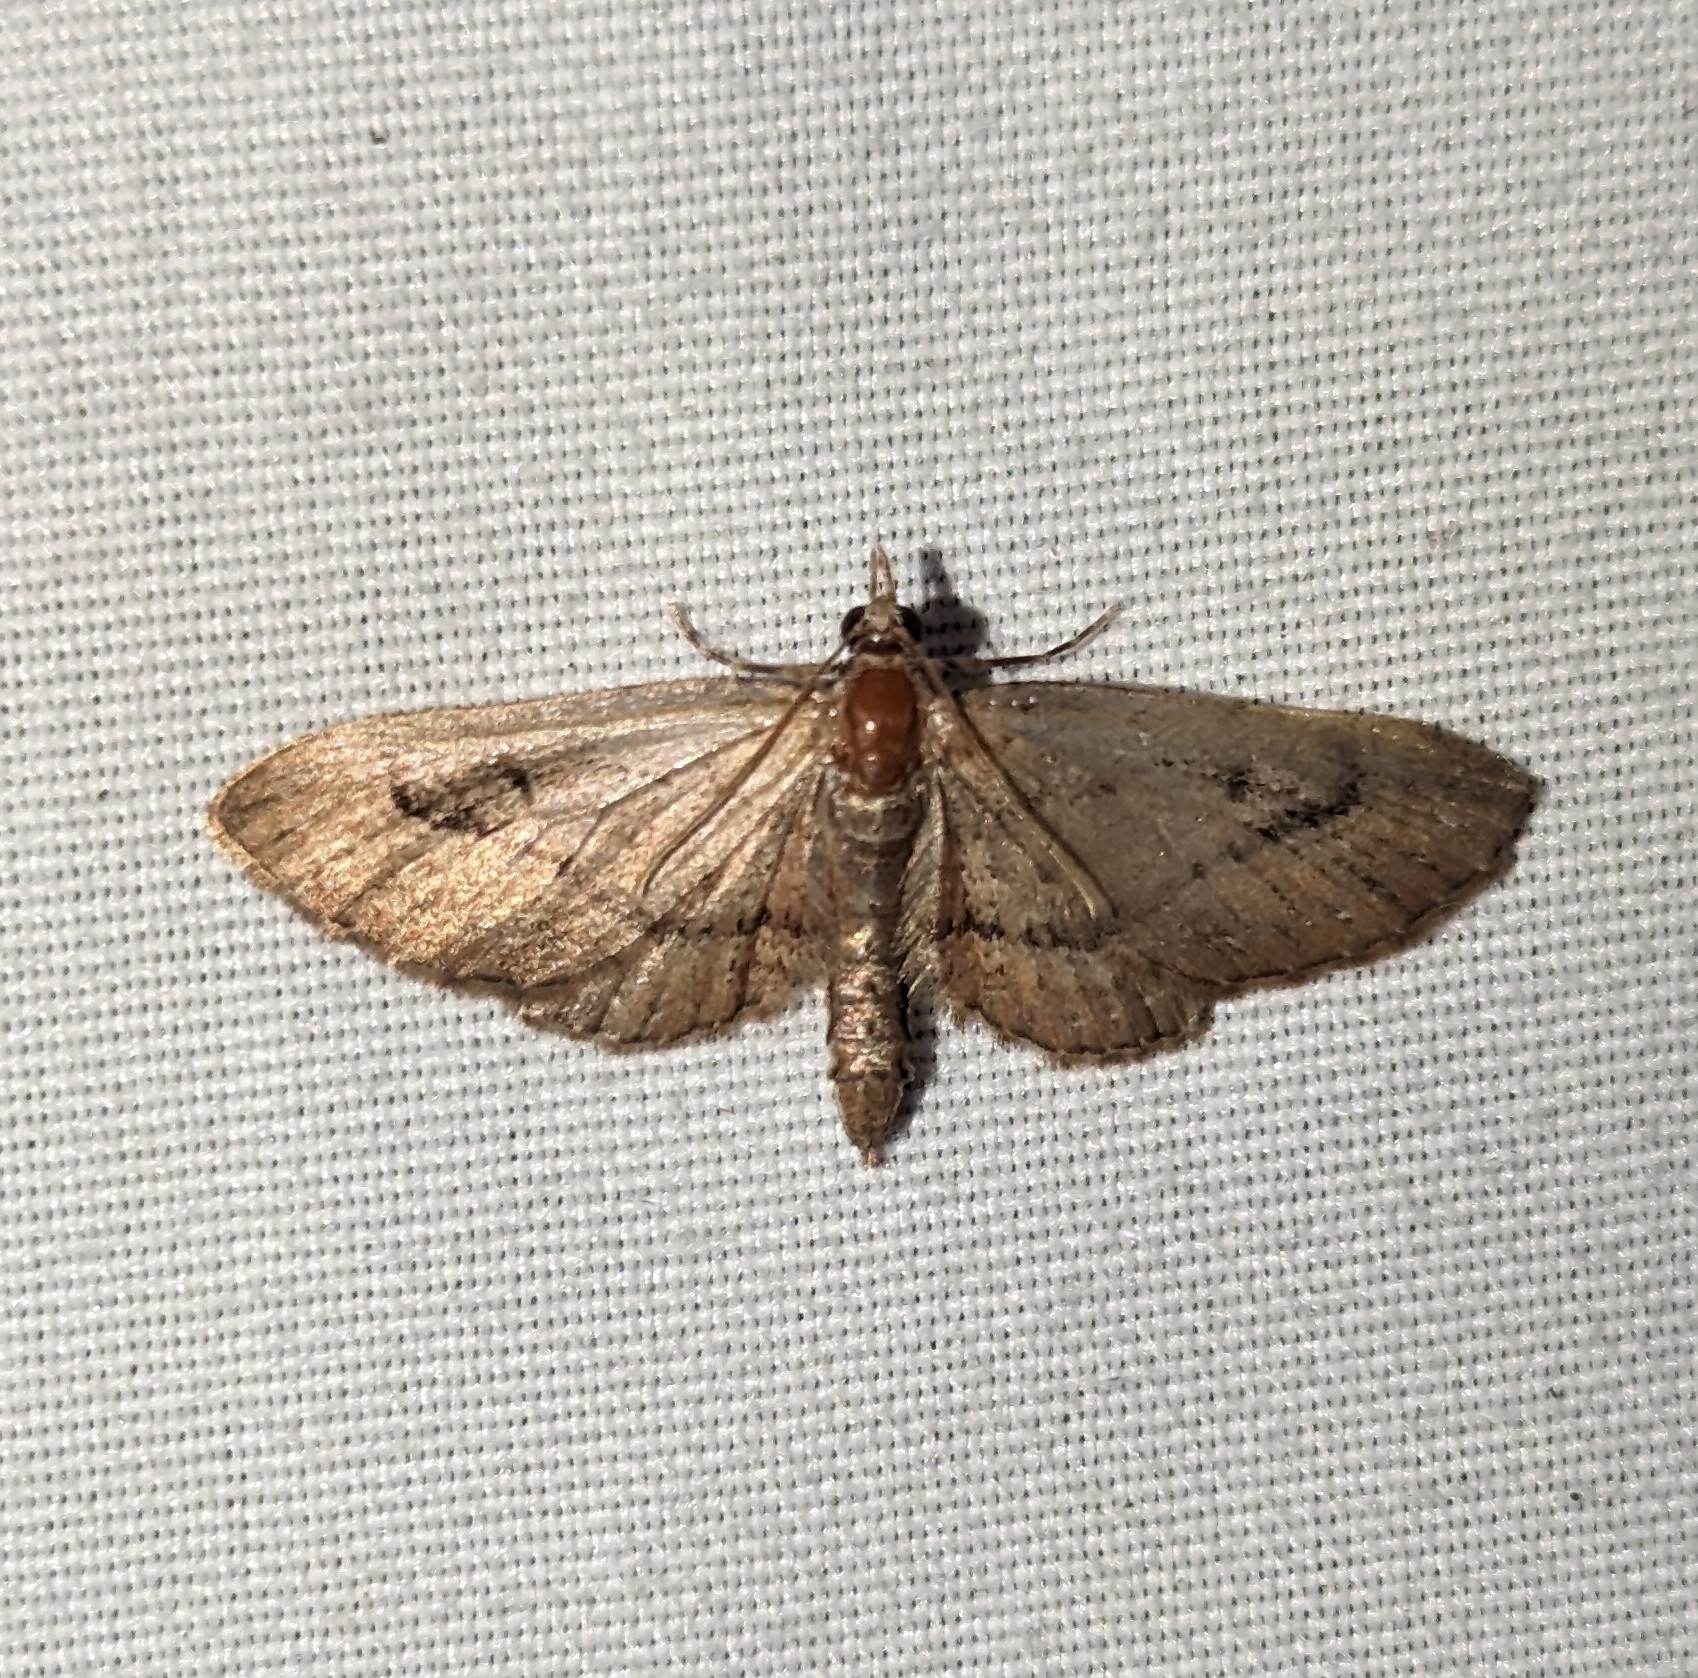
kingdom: Animalia
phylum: Arthropoda
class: Insecta
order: Lepidoptera
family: Geometridae
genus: Eupithecia
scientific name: Eupithecia unicolor
